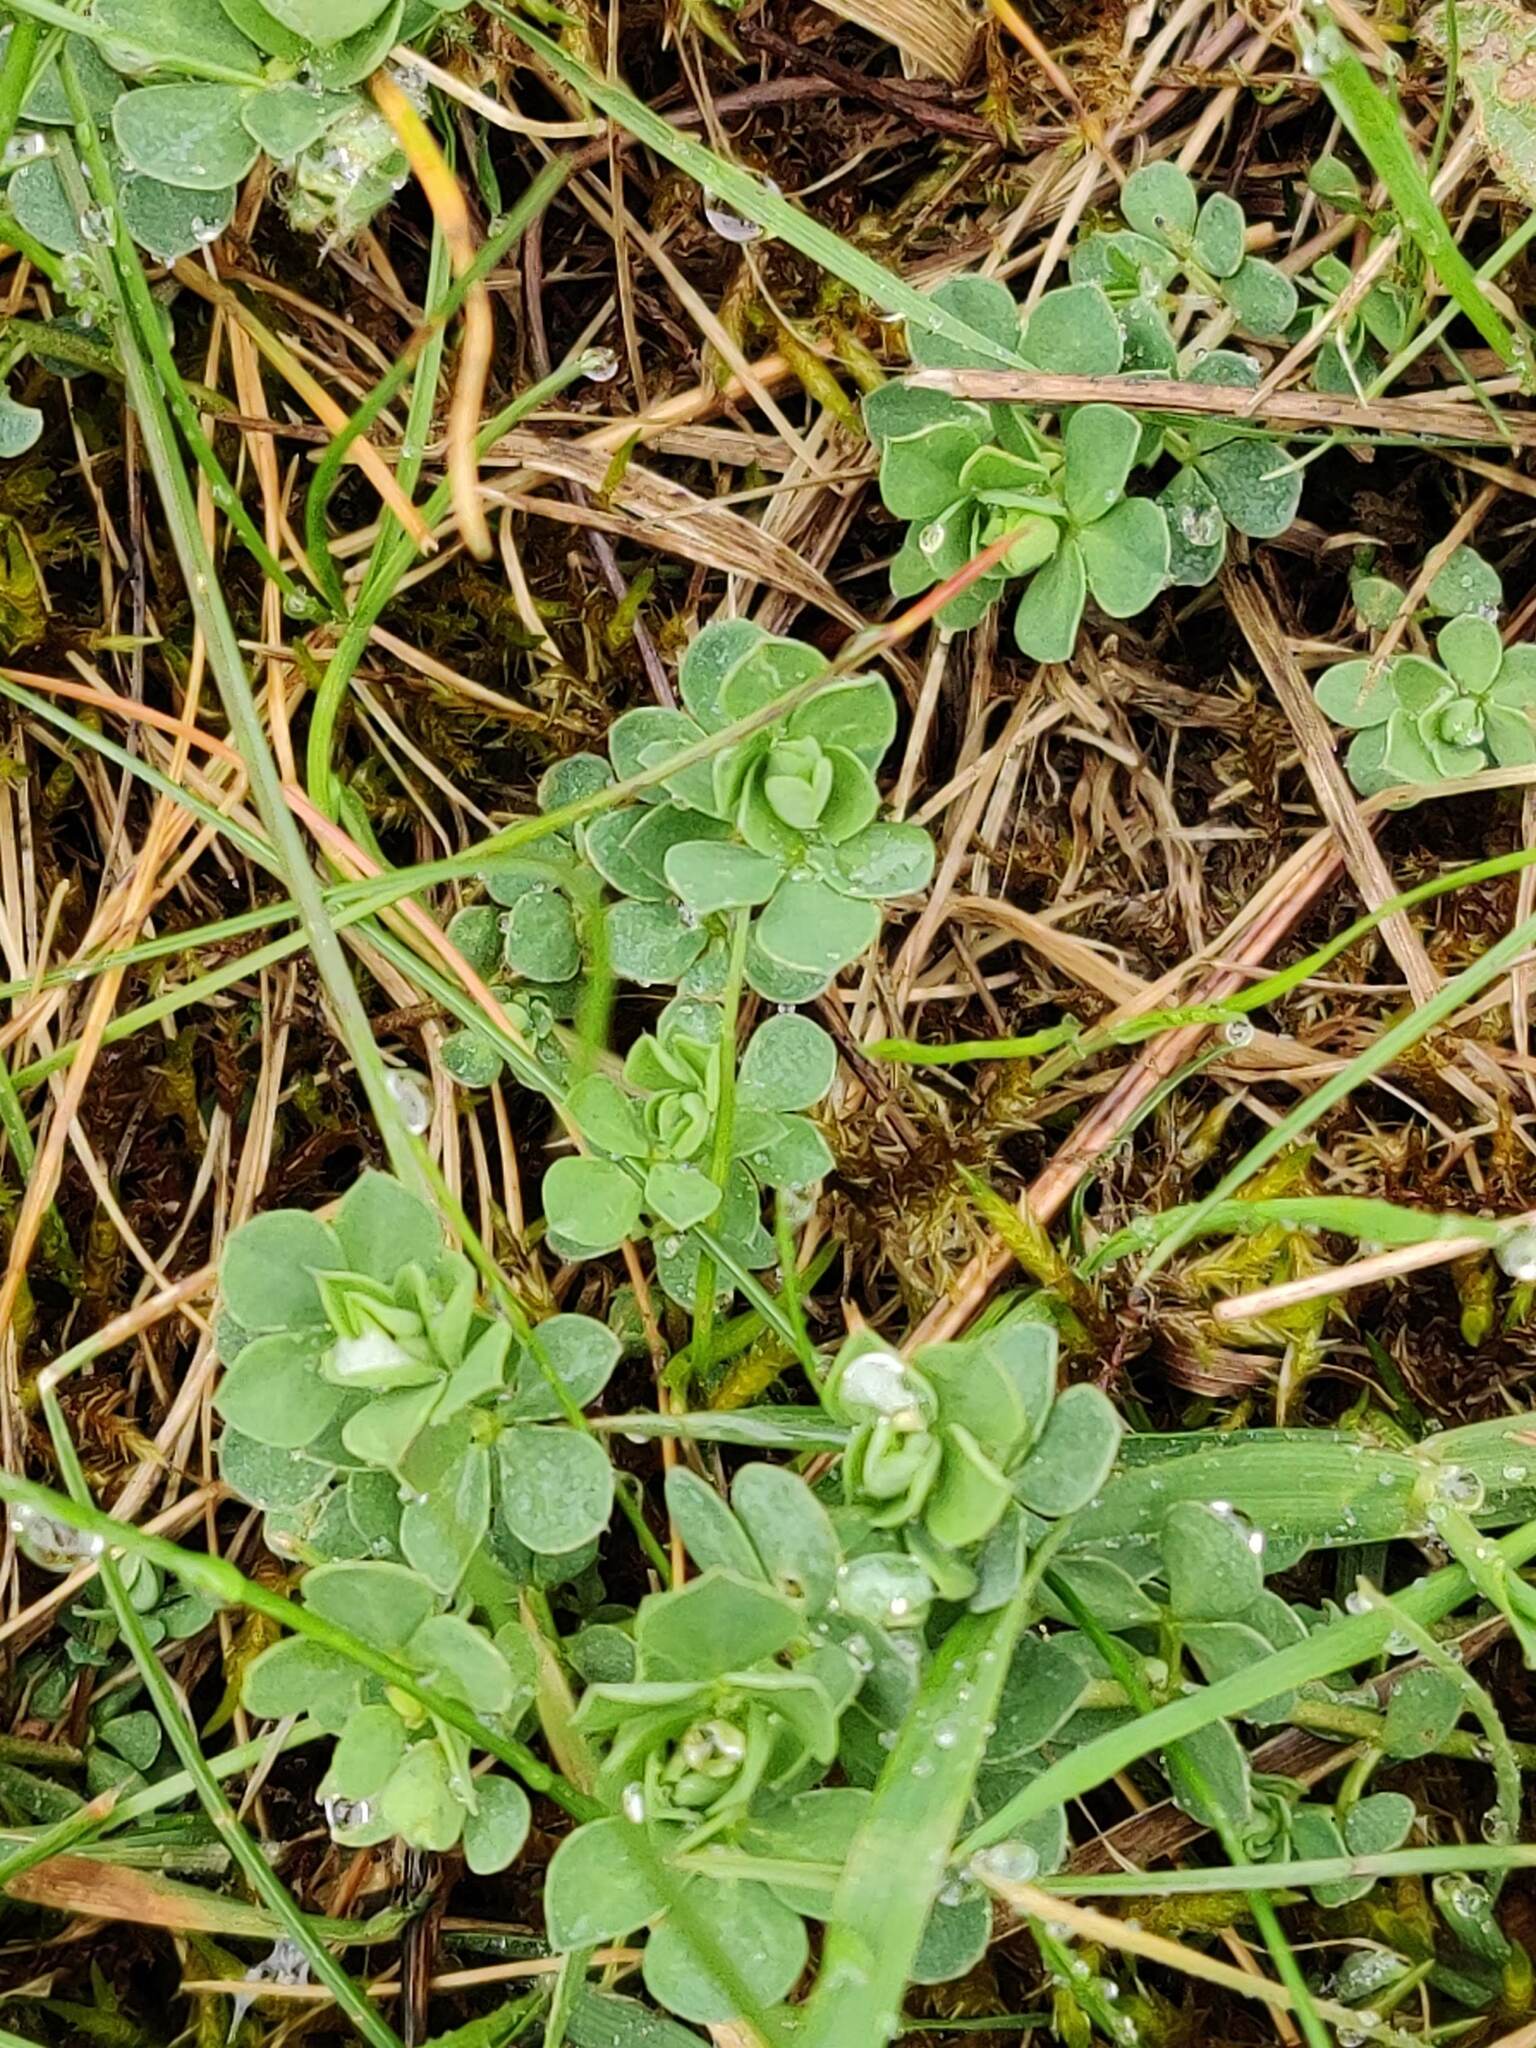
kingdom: Plantae
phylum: Tracheophyta
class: Magnoliopsida
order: Fabales
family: Fabaceae
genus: Lotus
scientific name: Lotus corniculatus
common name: Common bird's-foot-trefoil
